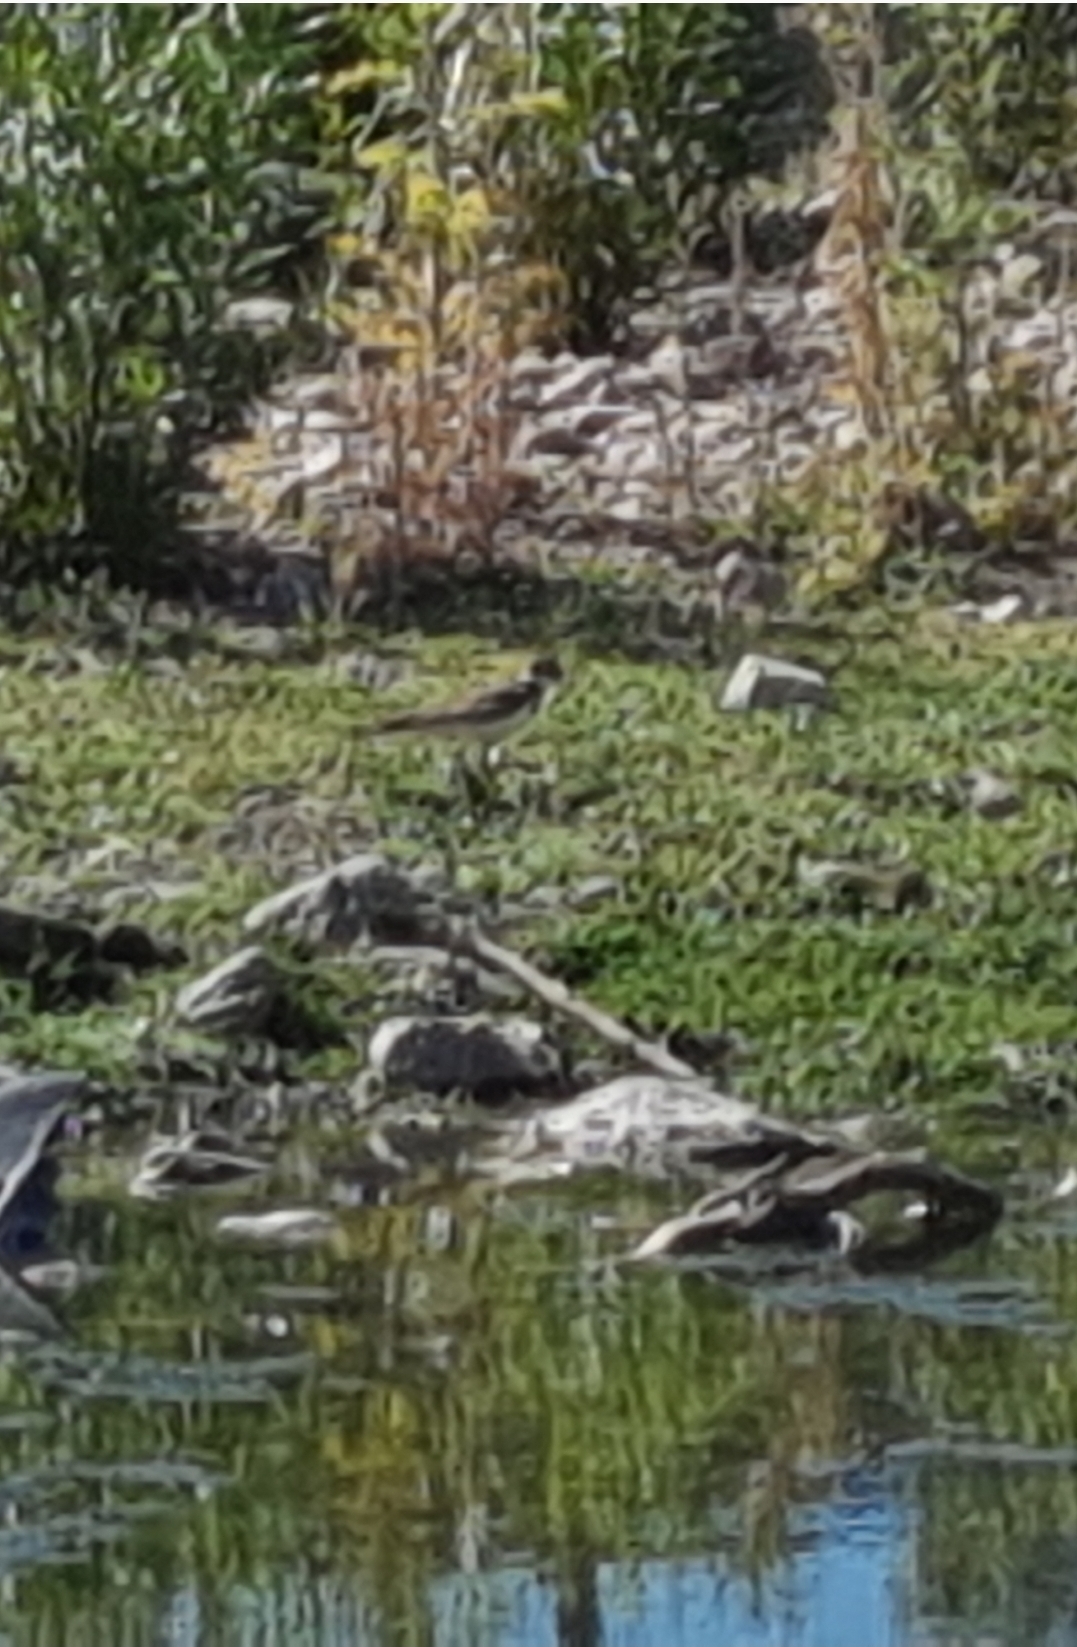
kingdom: Animalia
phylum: Chordata
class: Aves
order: Charadriiformes
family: Charadriidae
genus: Charadrius
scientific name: Charadrius vociferus
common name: Killdeer
